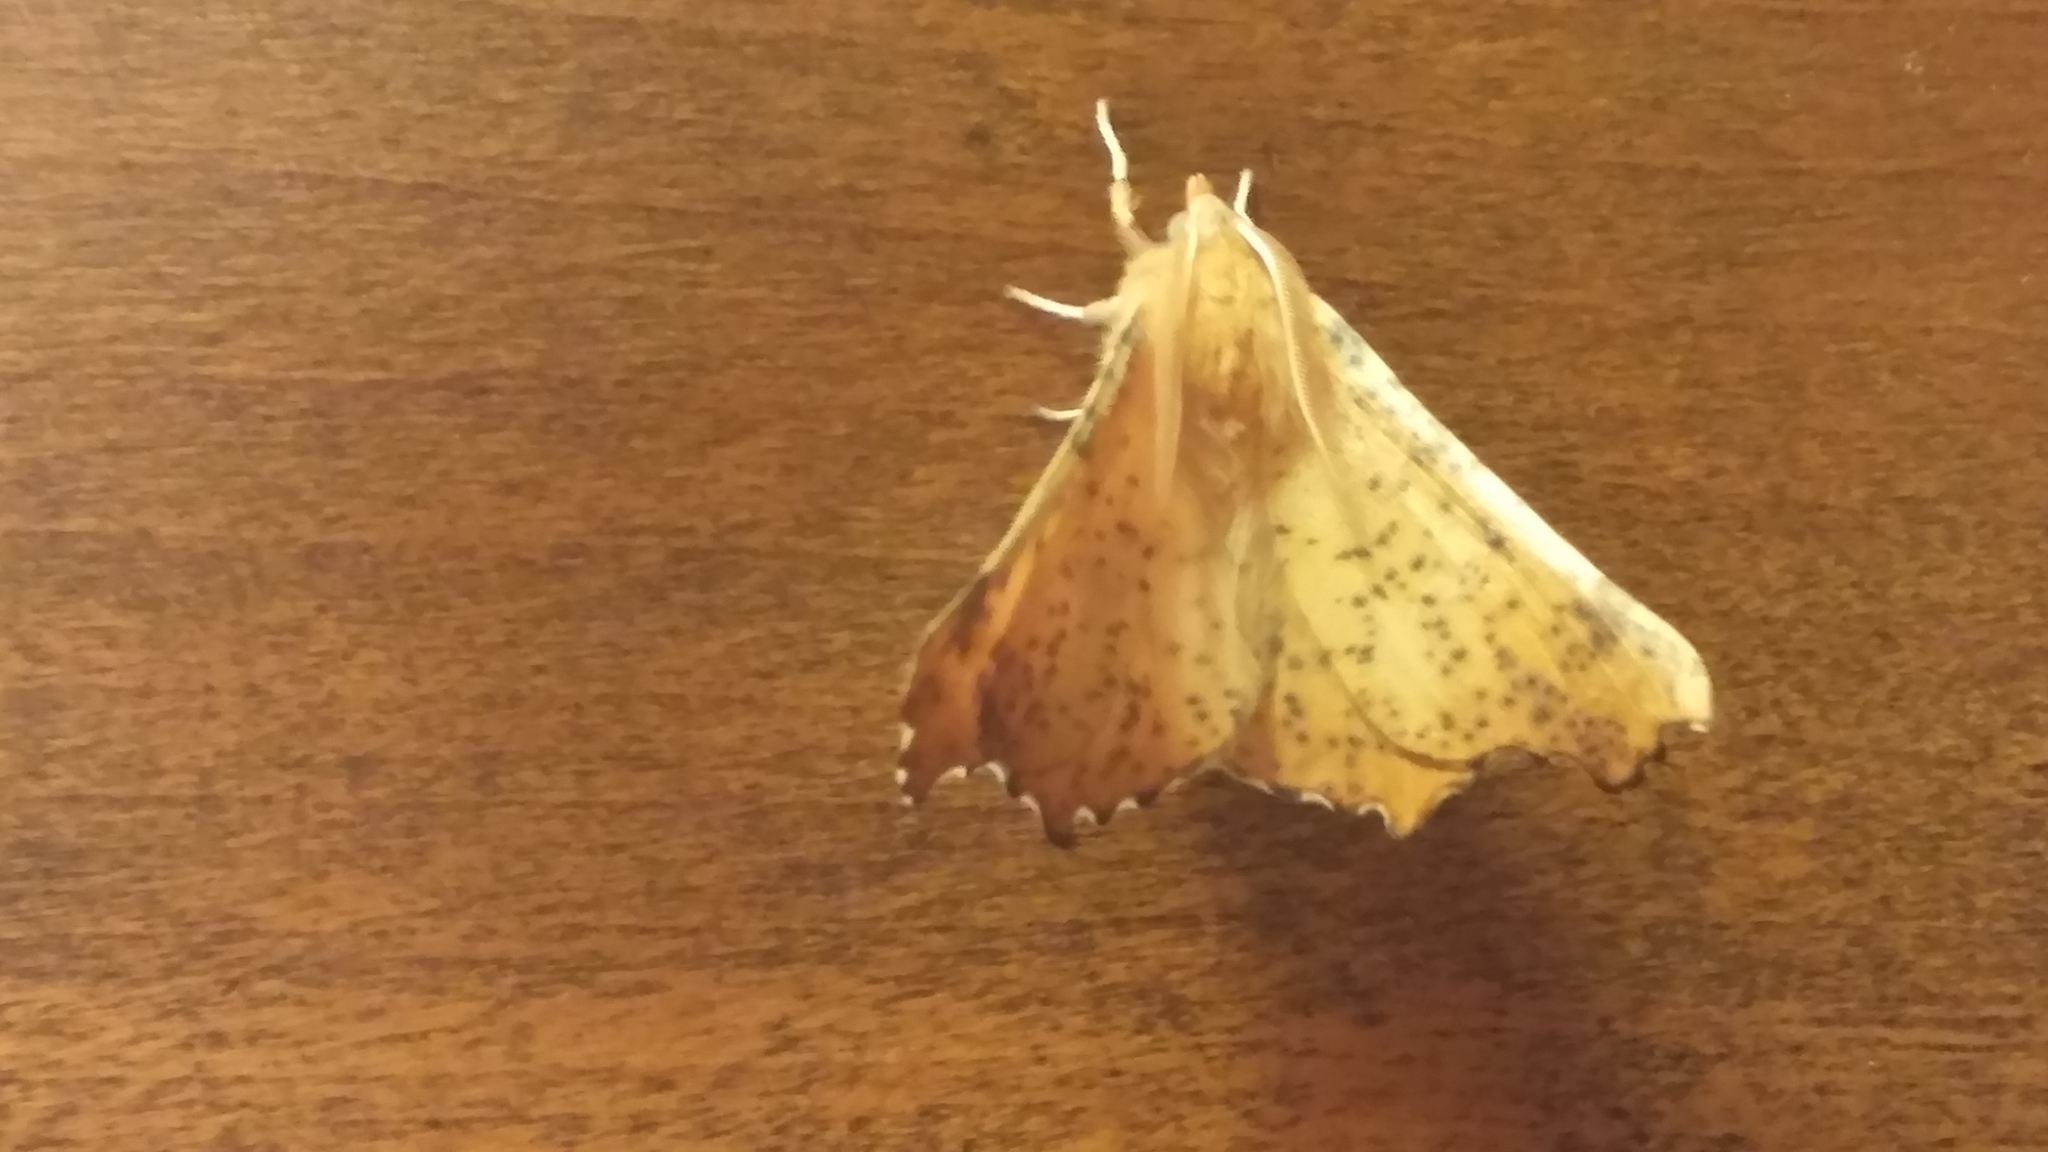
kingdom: Animalia
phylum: Arthropoda
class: Insecta
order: Lepidoptera
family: Geometridae
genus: Ennomos
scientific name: Ennomos magnaria
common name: Maple spanworm
